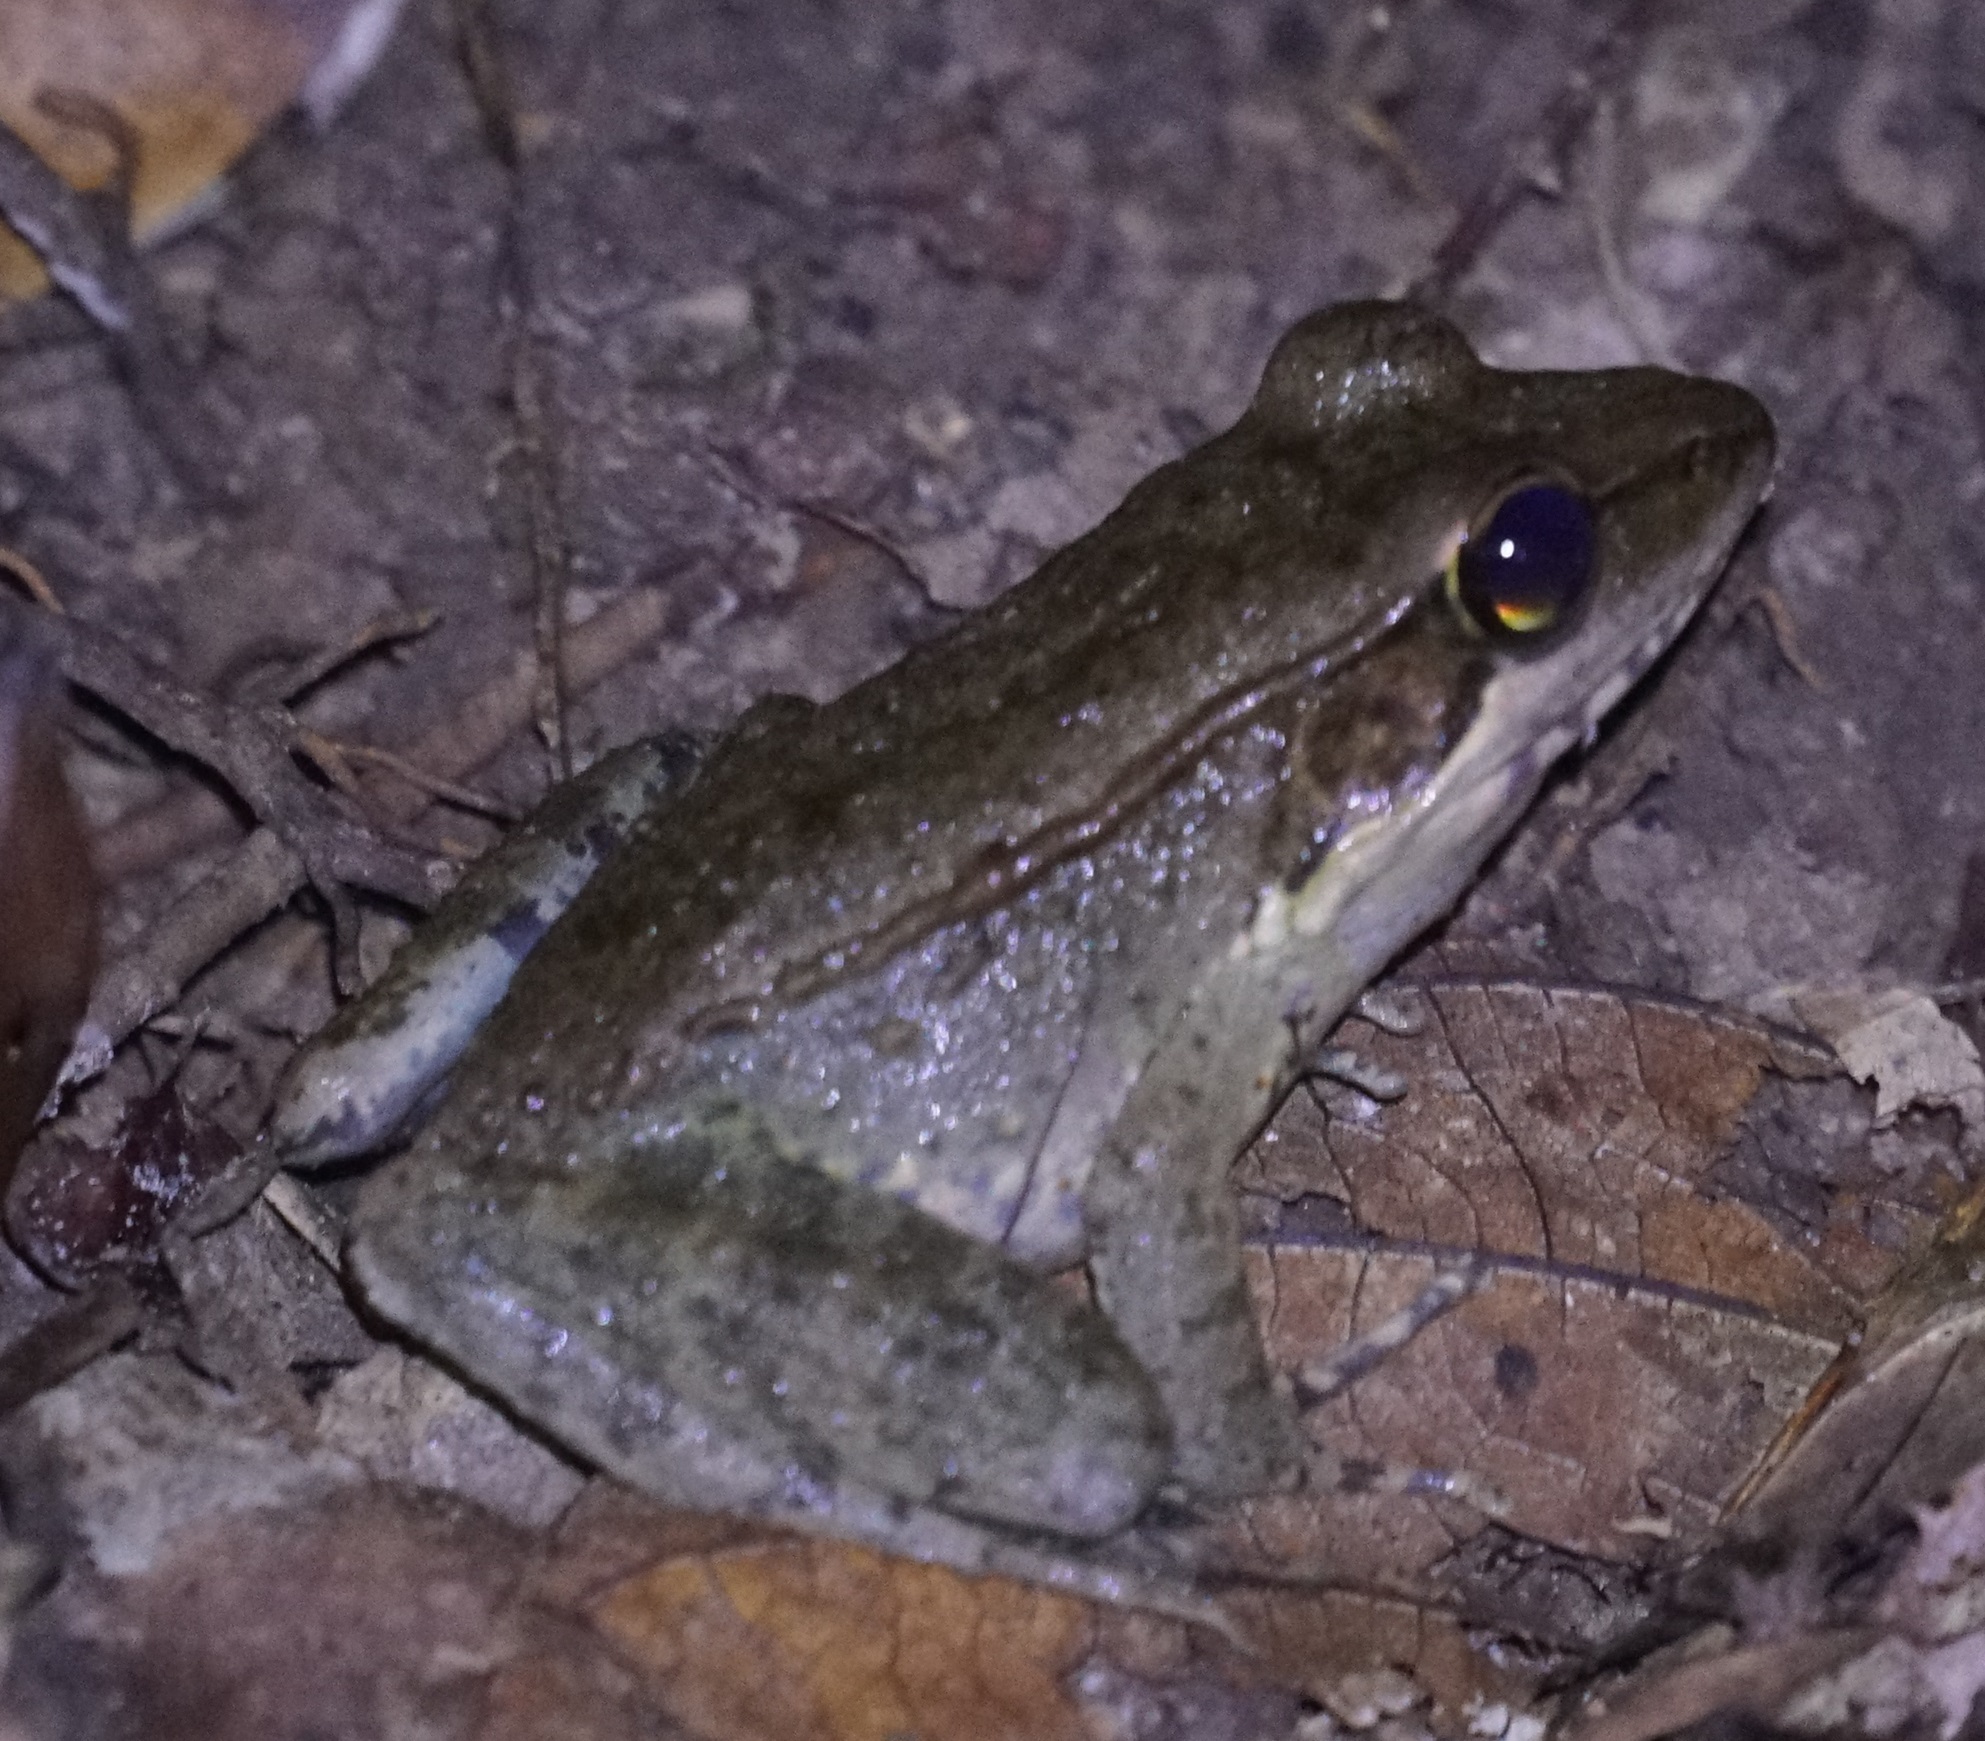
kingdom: Animalia
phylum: Chordata
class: Amphibia
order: Anura
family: Ranidae
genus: Papurana
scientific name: Papurana daemeli
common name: Arhem rana
